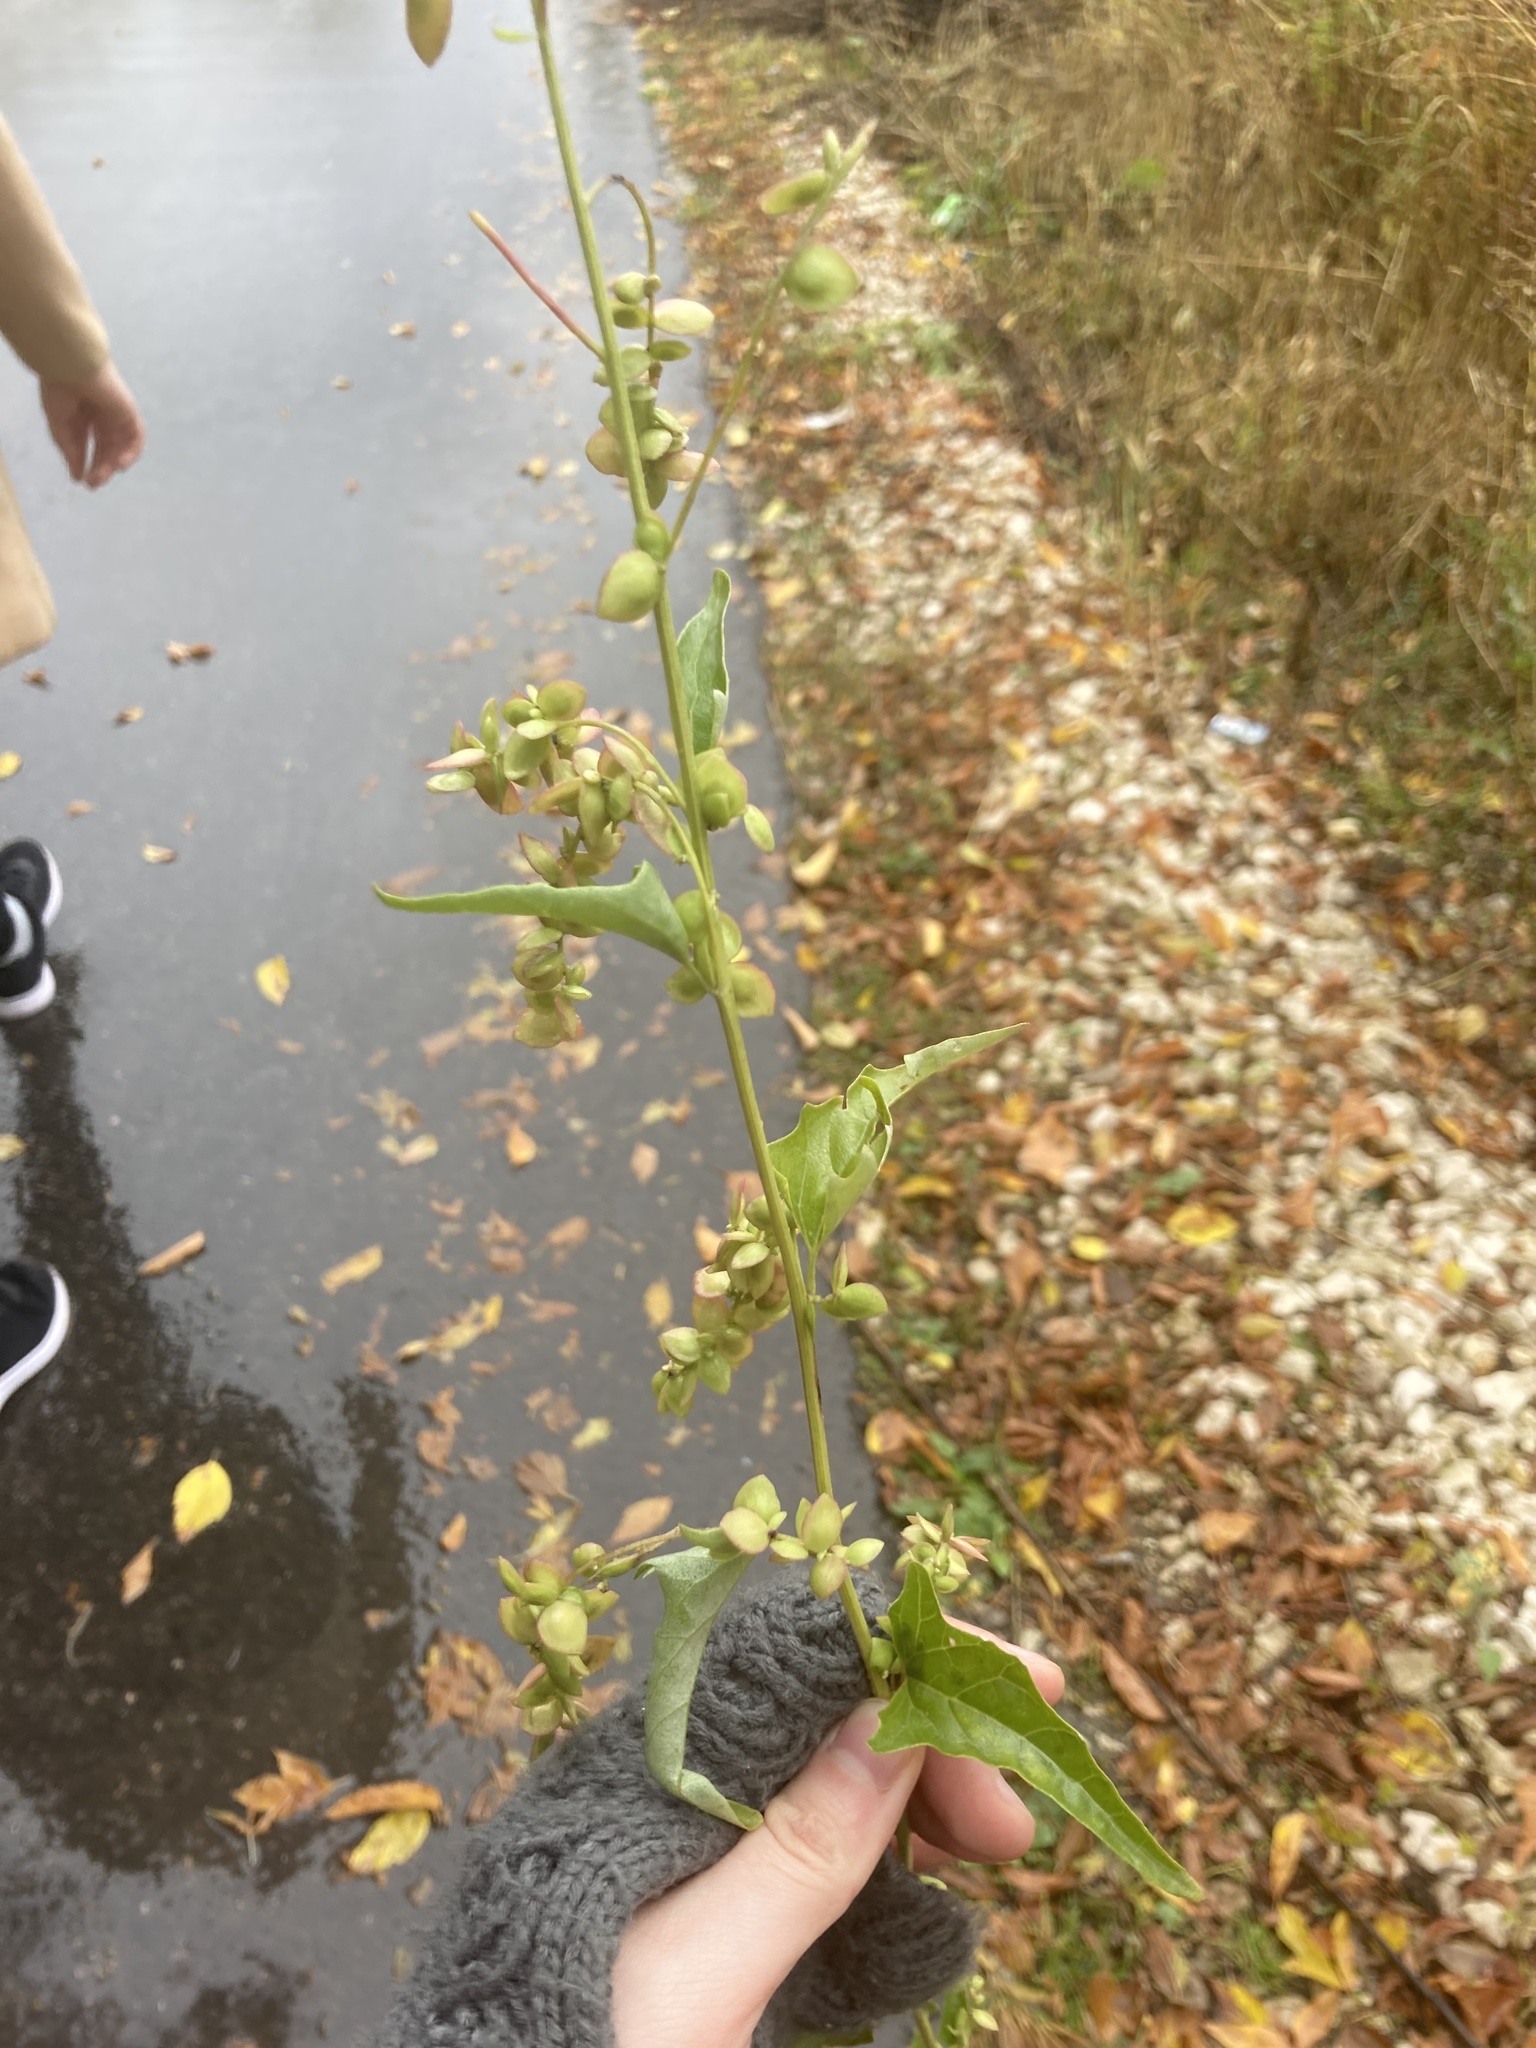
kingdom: Plantae
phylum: Tracheophyta
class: Magnoliopsida
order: Caryophyllales
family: Amaranthaceae
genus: Atriplex
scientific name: Atriplex sagittata
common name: Purple orache
